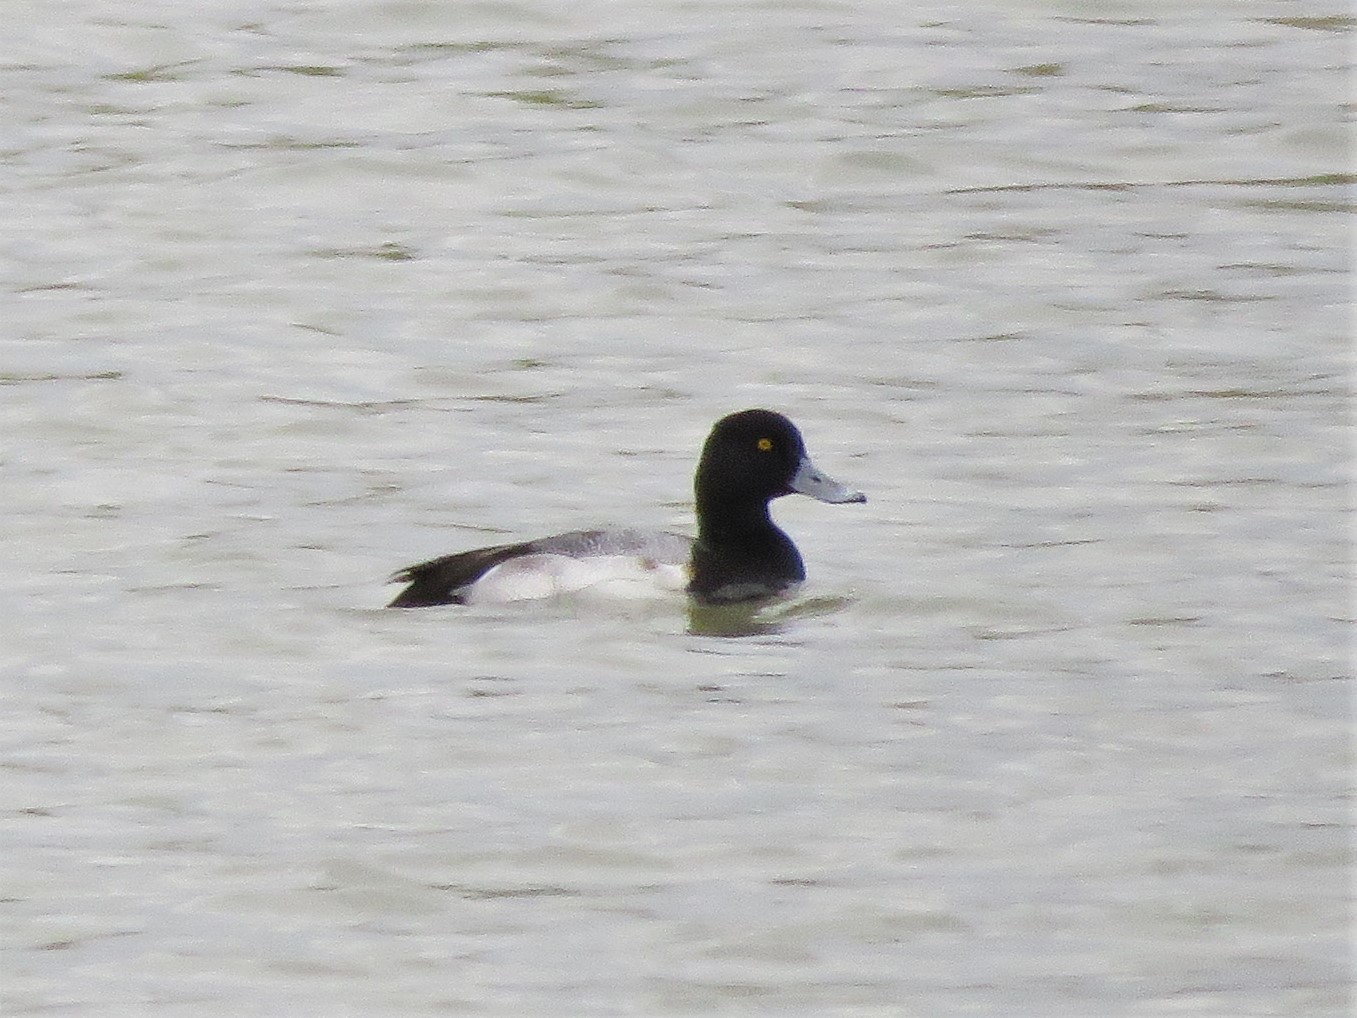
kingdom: Animalia
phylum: Chordata
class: Aves
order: Anseriformes
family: Anatidae
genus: Aythya
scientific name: Aythya affinis
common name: Lesser scaup
